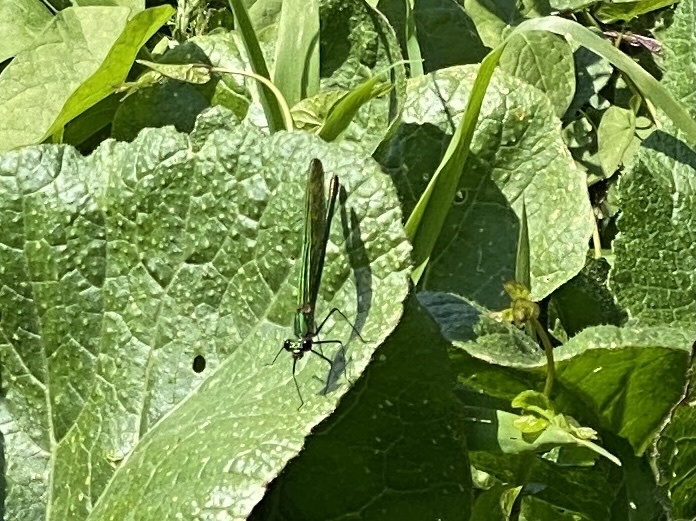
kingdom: Animalia
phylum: Arthropoda
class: Insecta
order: Odonata
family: Calopterygidae
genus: Calopteryx
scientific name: Calopteryx splendens
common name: Banded demoiselle
